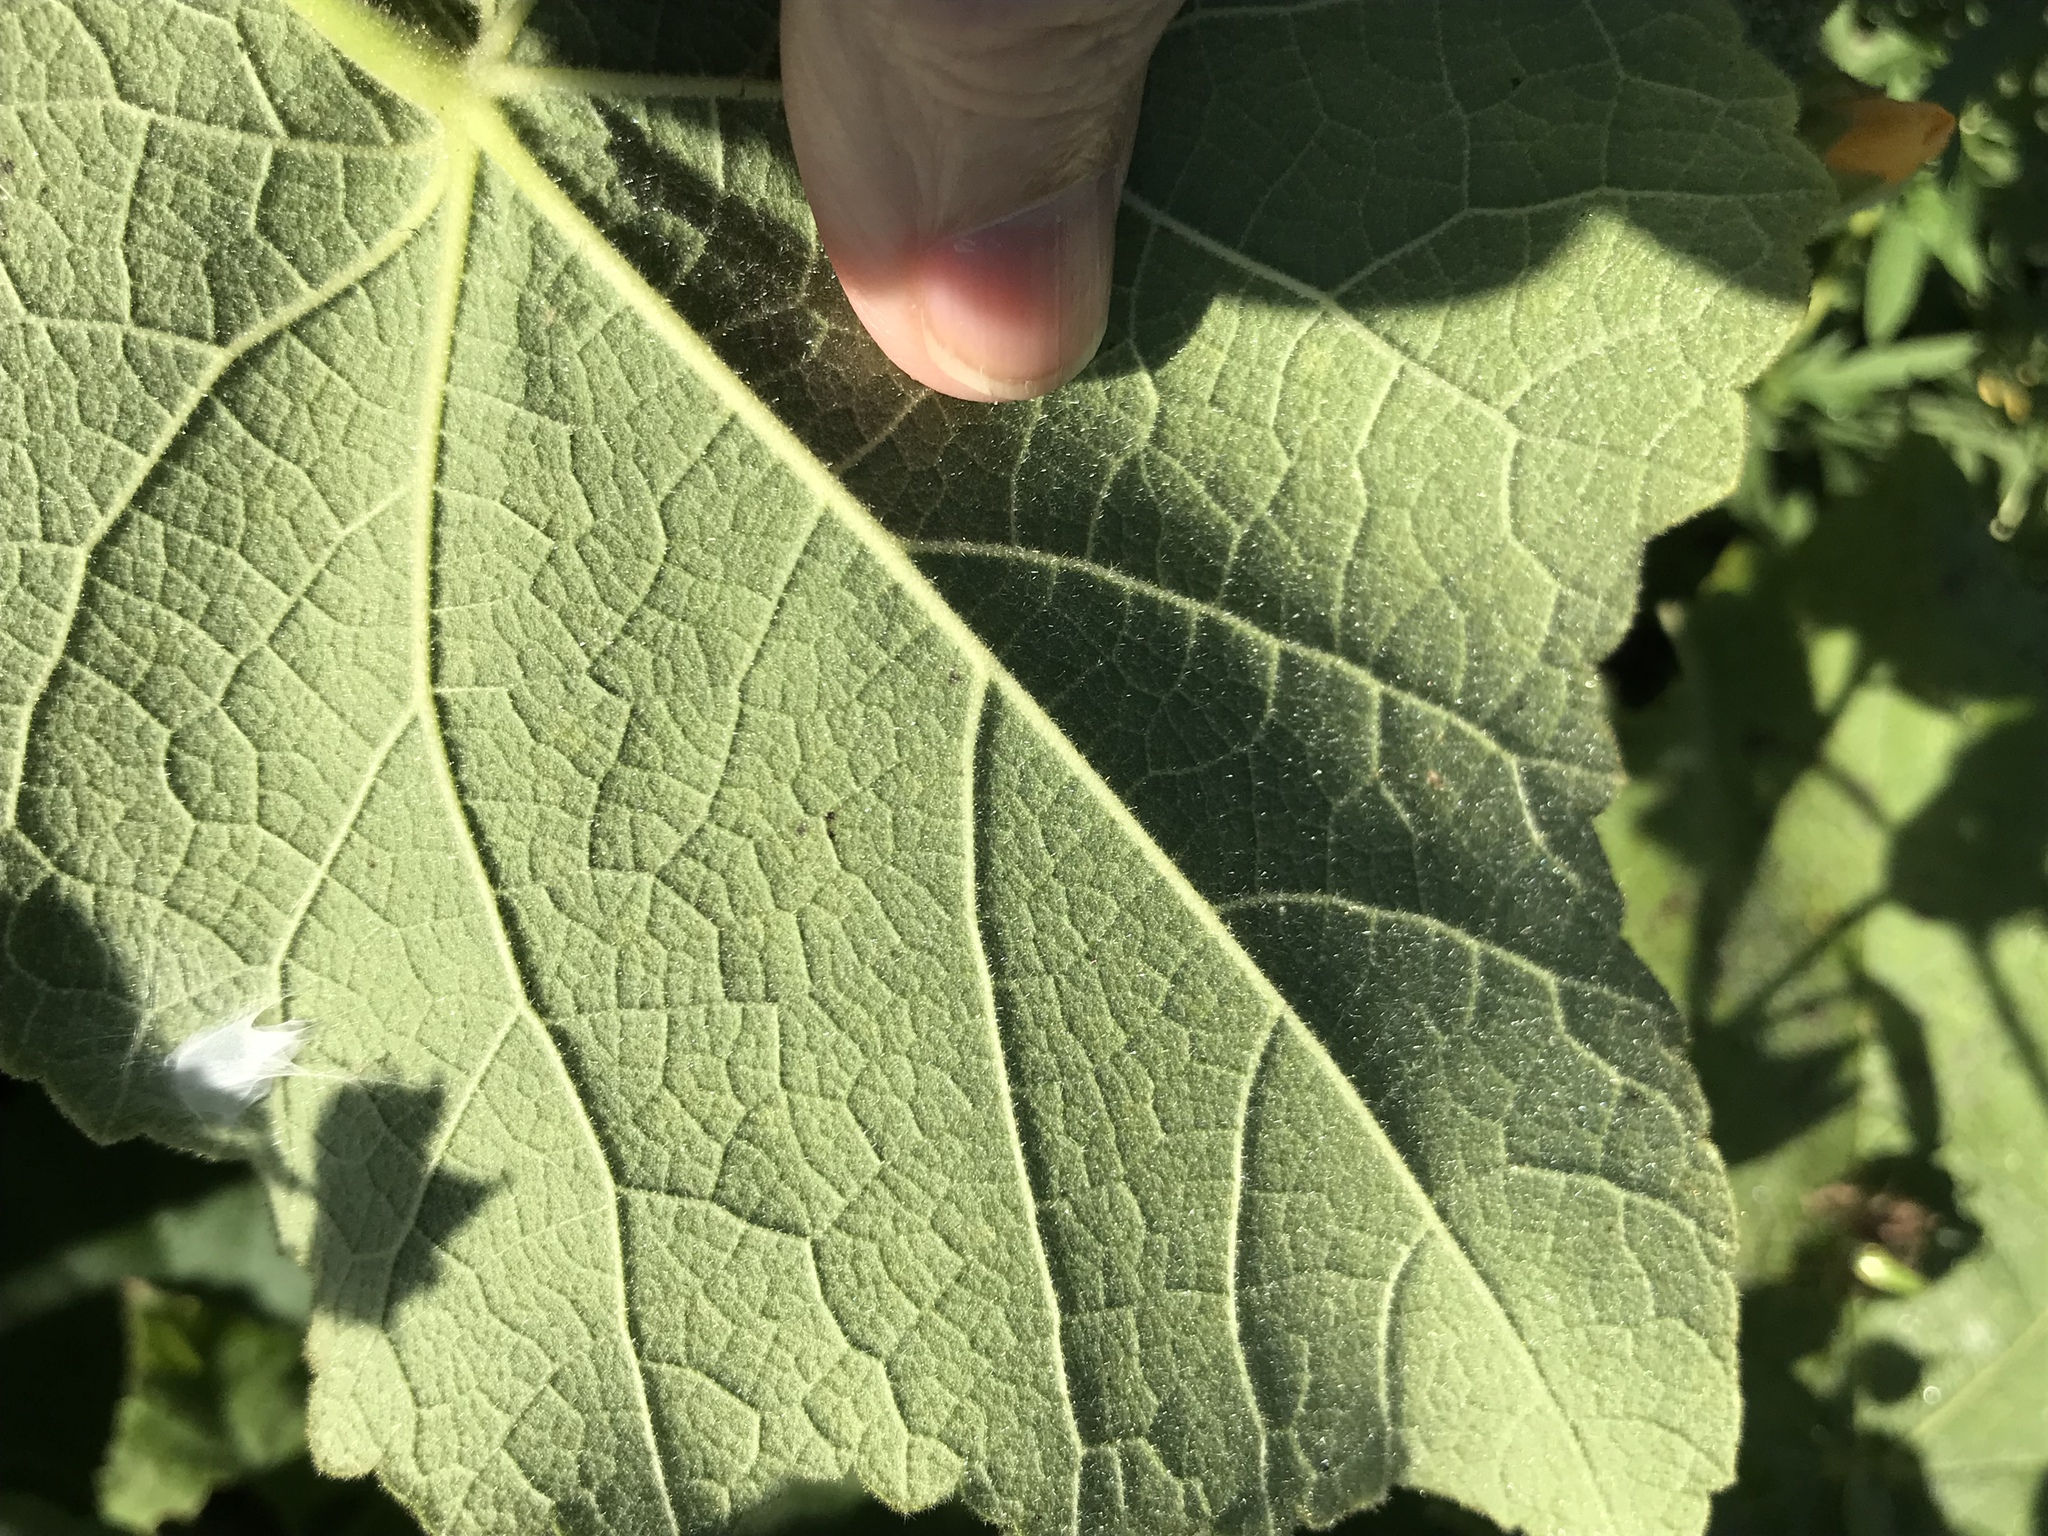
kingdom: Plantae
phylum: Tracheophyta
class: Magnoliopsida
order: Malvales
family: Malvaceae
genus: Allowissadula
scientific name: Allowissadula holosericea
